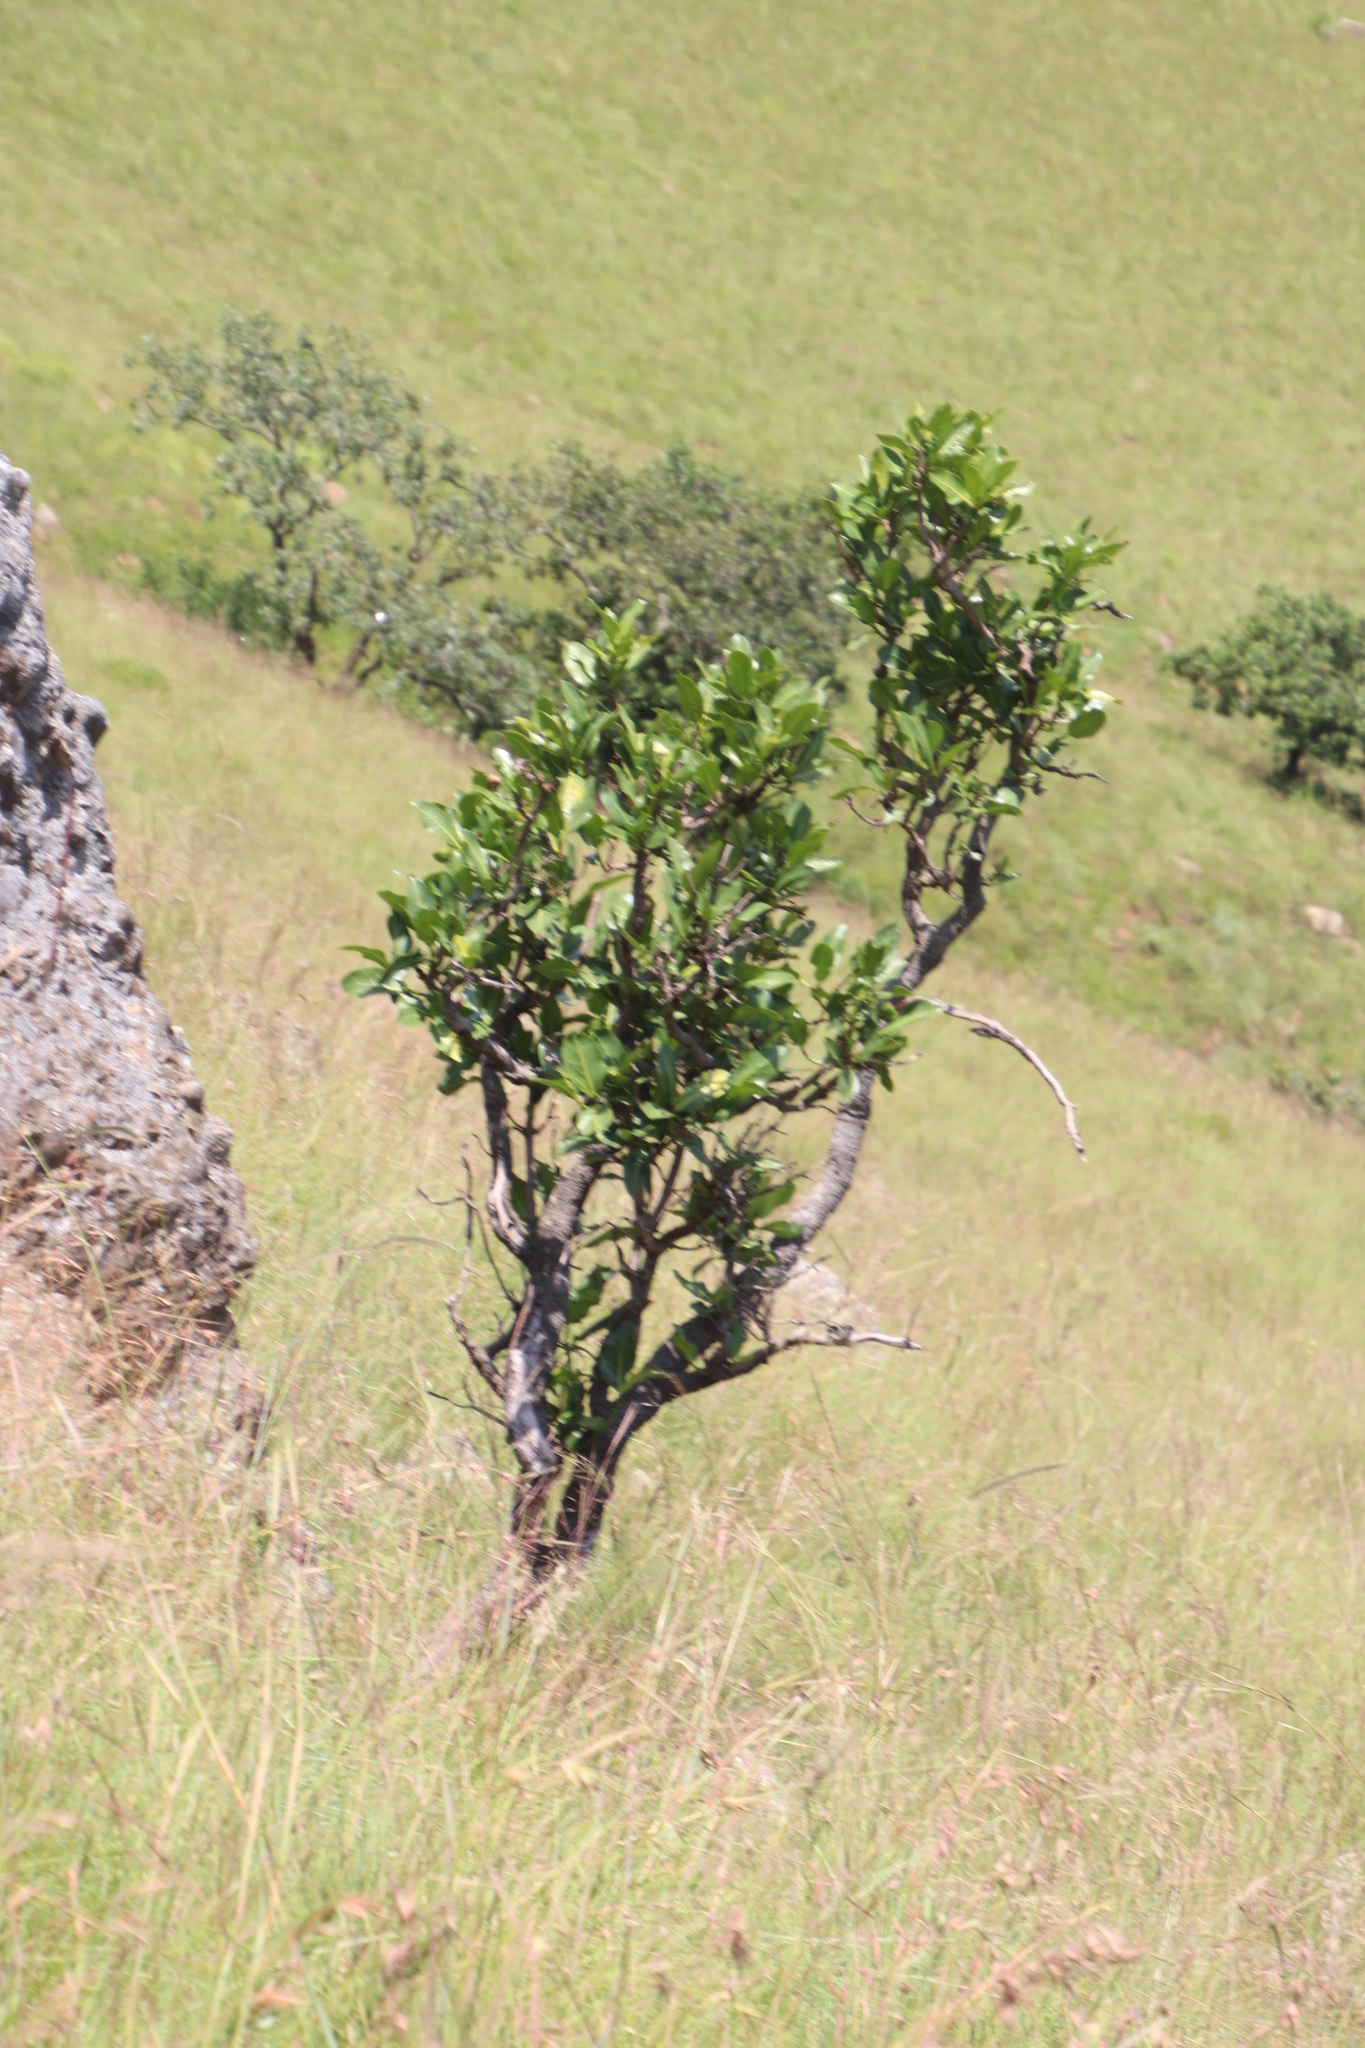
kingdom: Plantae
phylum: Tracheophyta
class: Magnoliopsida
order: Gentianales
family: Rubiaceae
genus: Psychotria
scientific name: Psychotria
